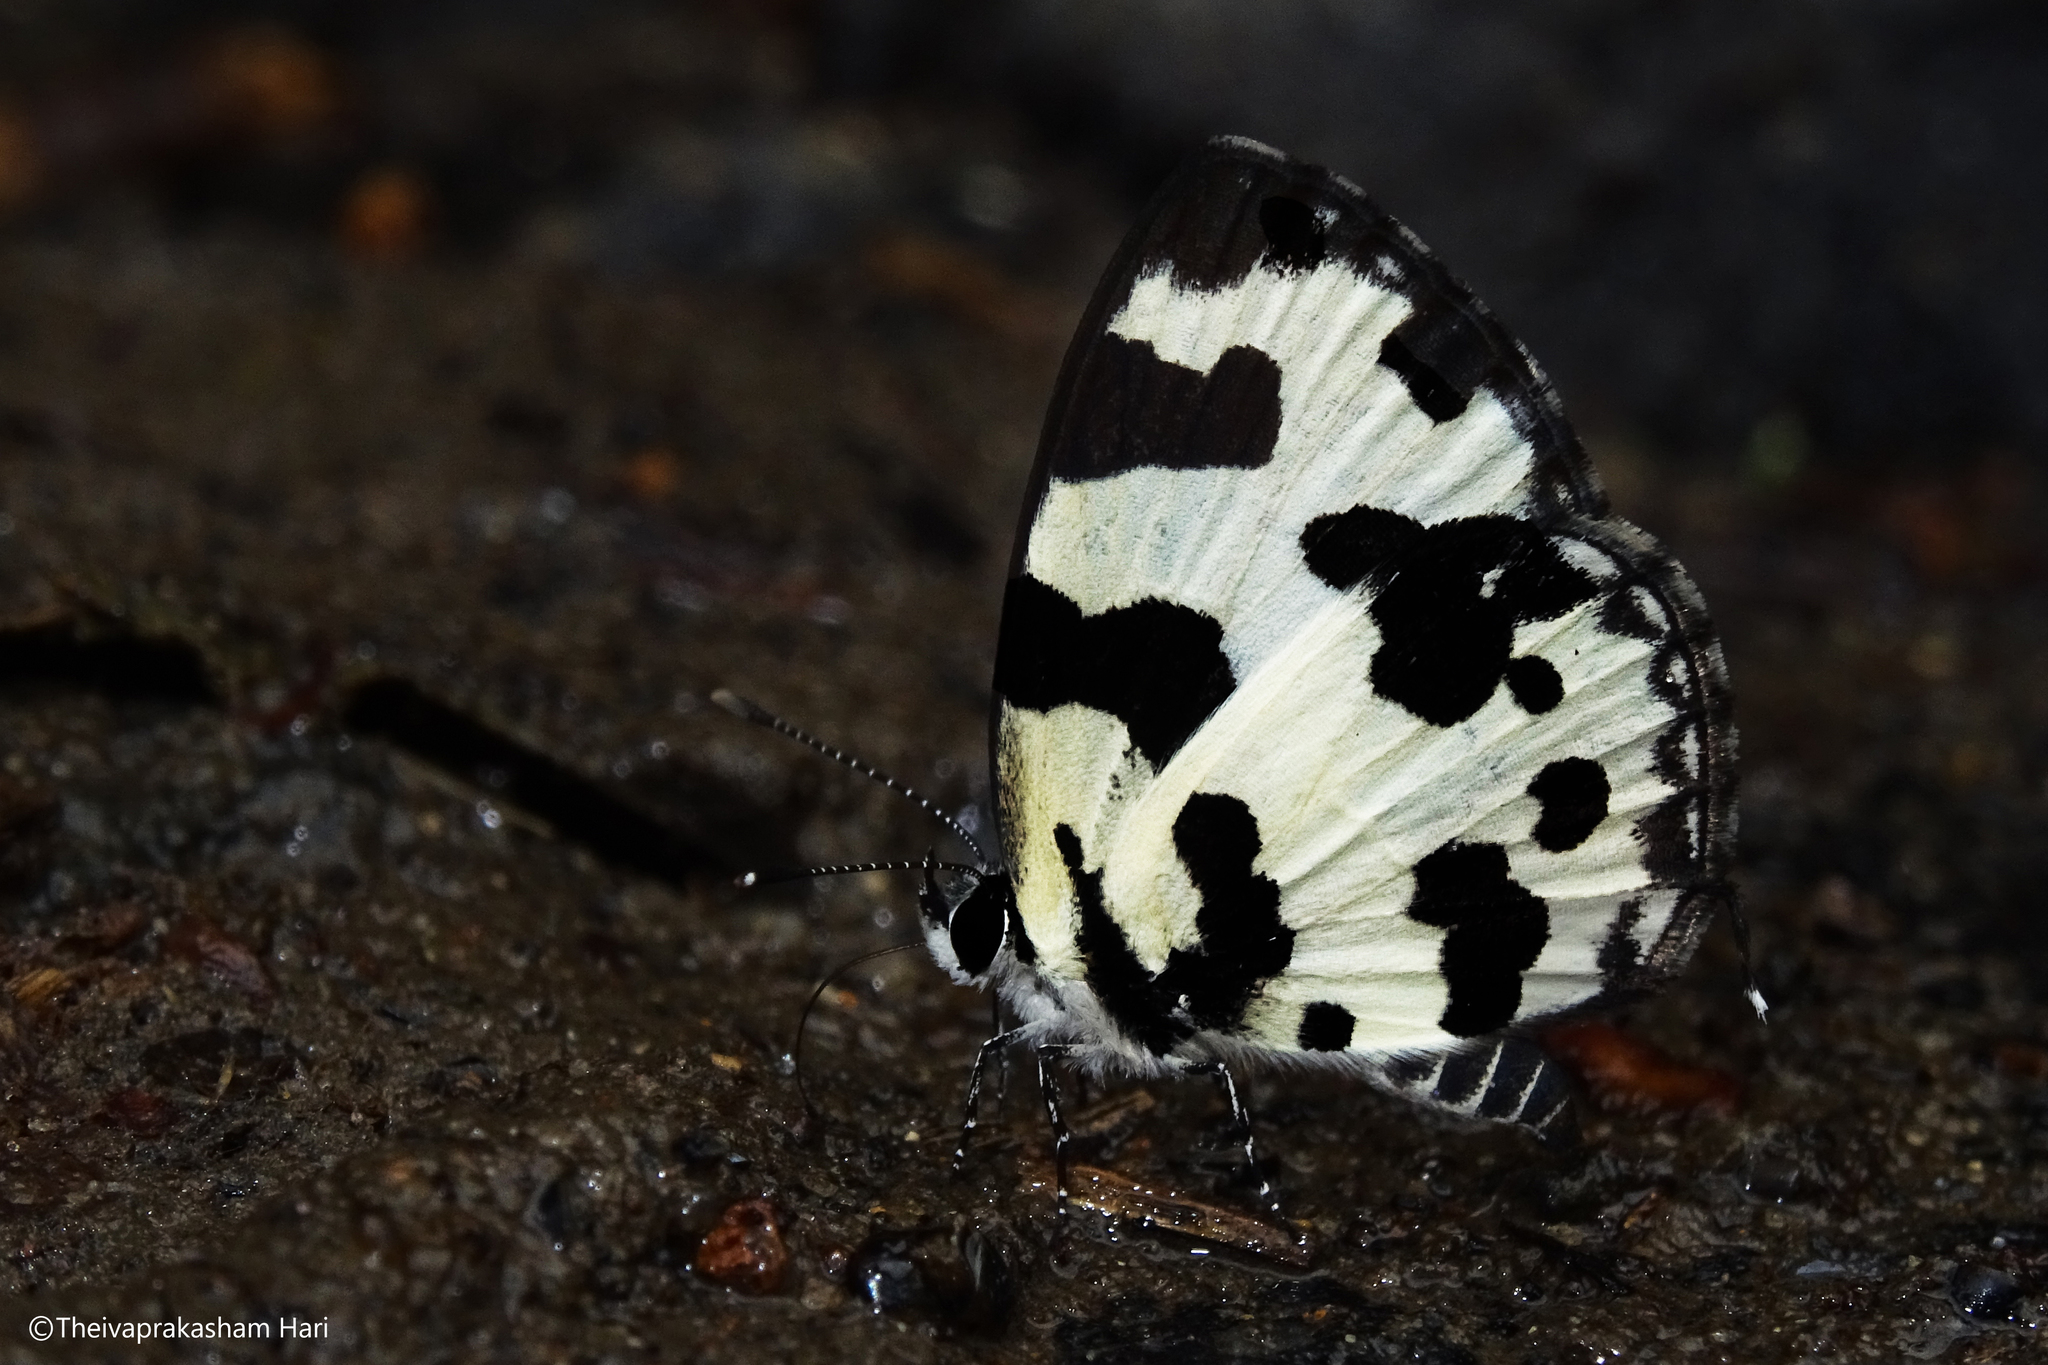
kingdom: Animalia
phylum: Arthropoda
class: Insecta
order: Lepidoptera
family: Lycaenidae
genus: Caleta
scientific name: Caleta decidia
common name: Angled pierrot
